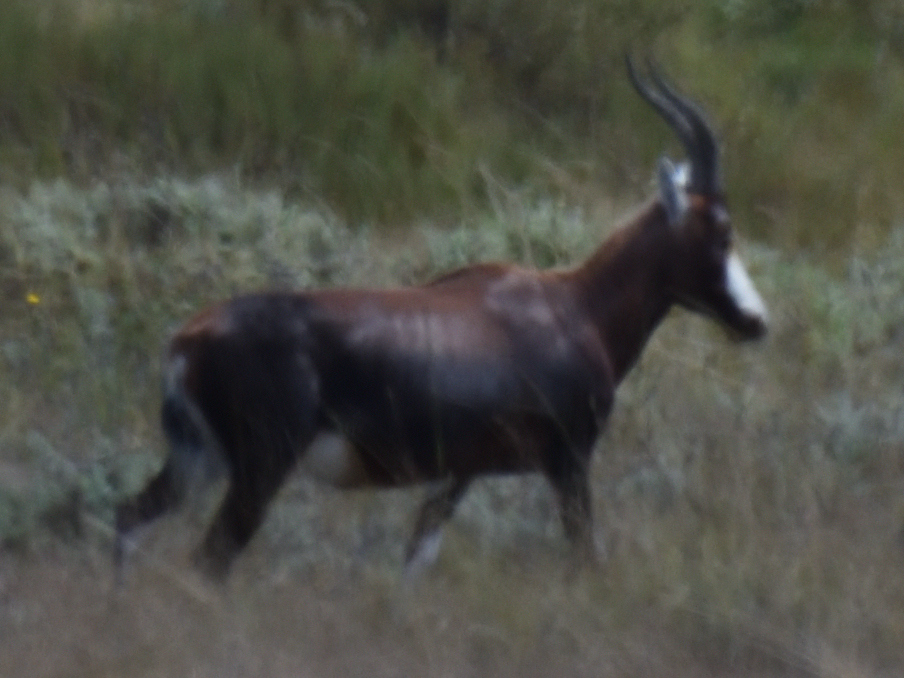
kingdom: Animalia
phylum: Chordata
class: Mammalia
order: Artiodactyla
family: Bovidae
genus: Damaliscus
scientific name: Damaliscus pygargus
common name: Bontebok
